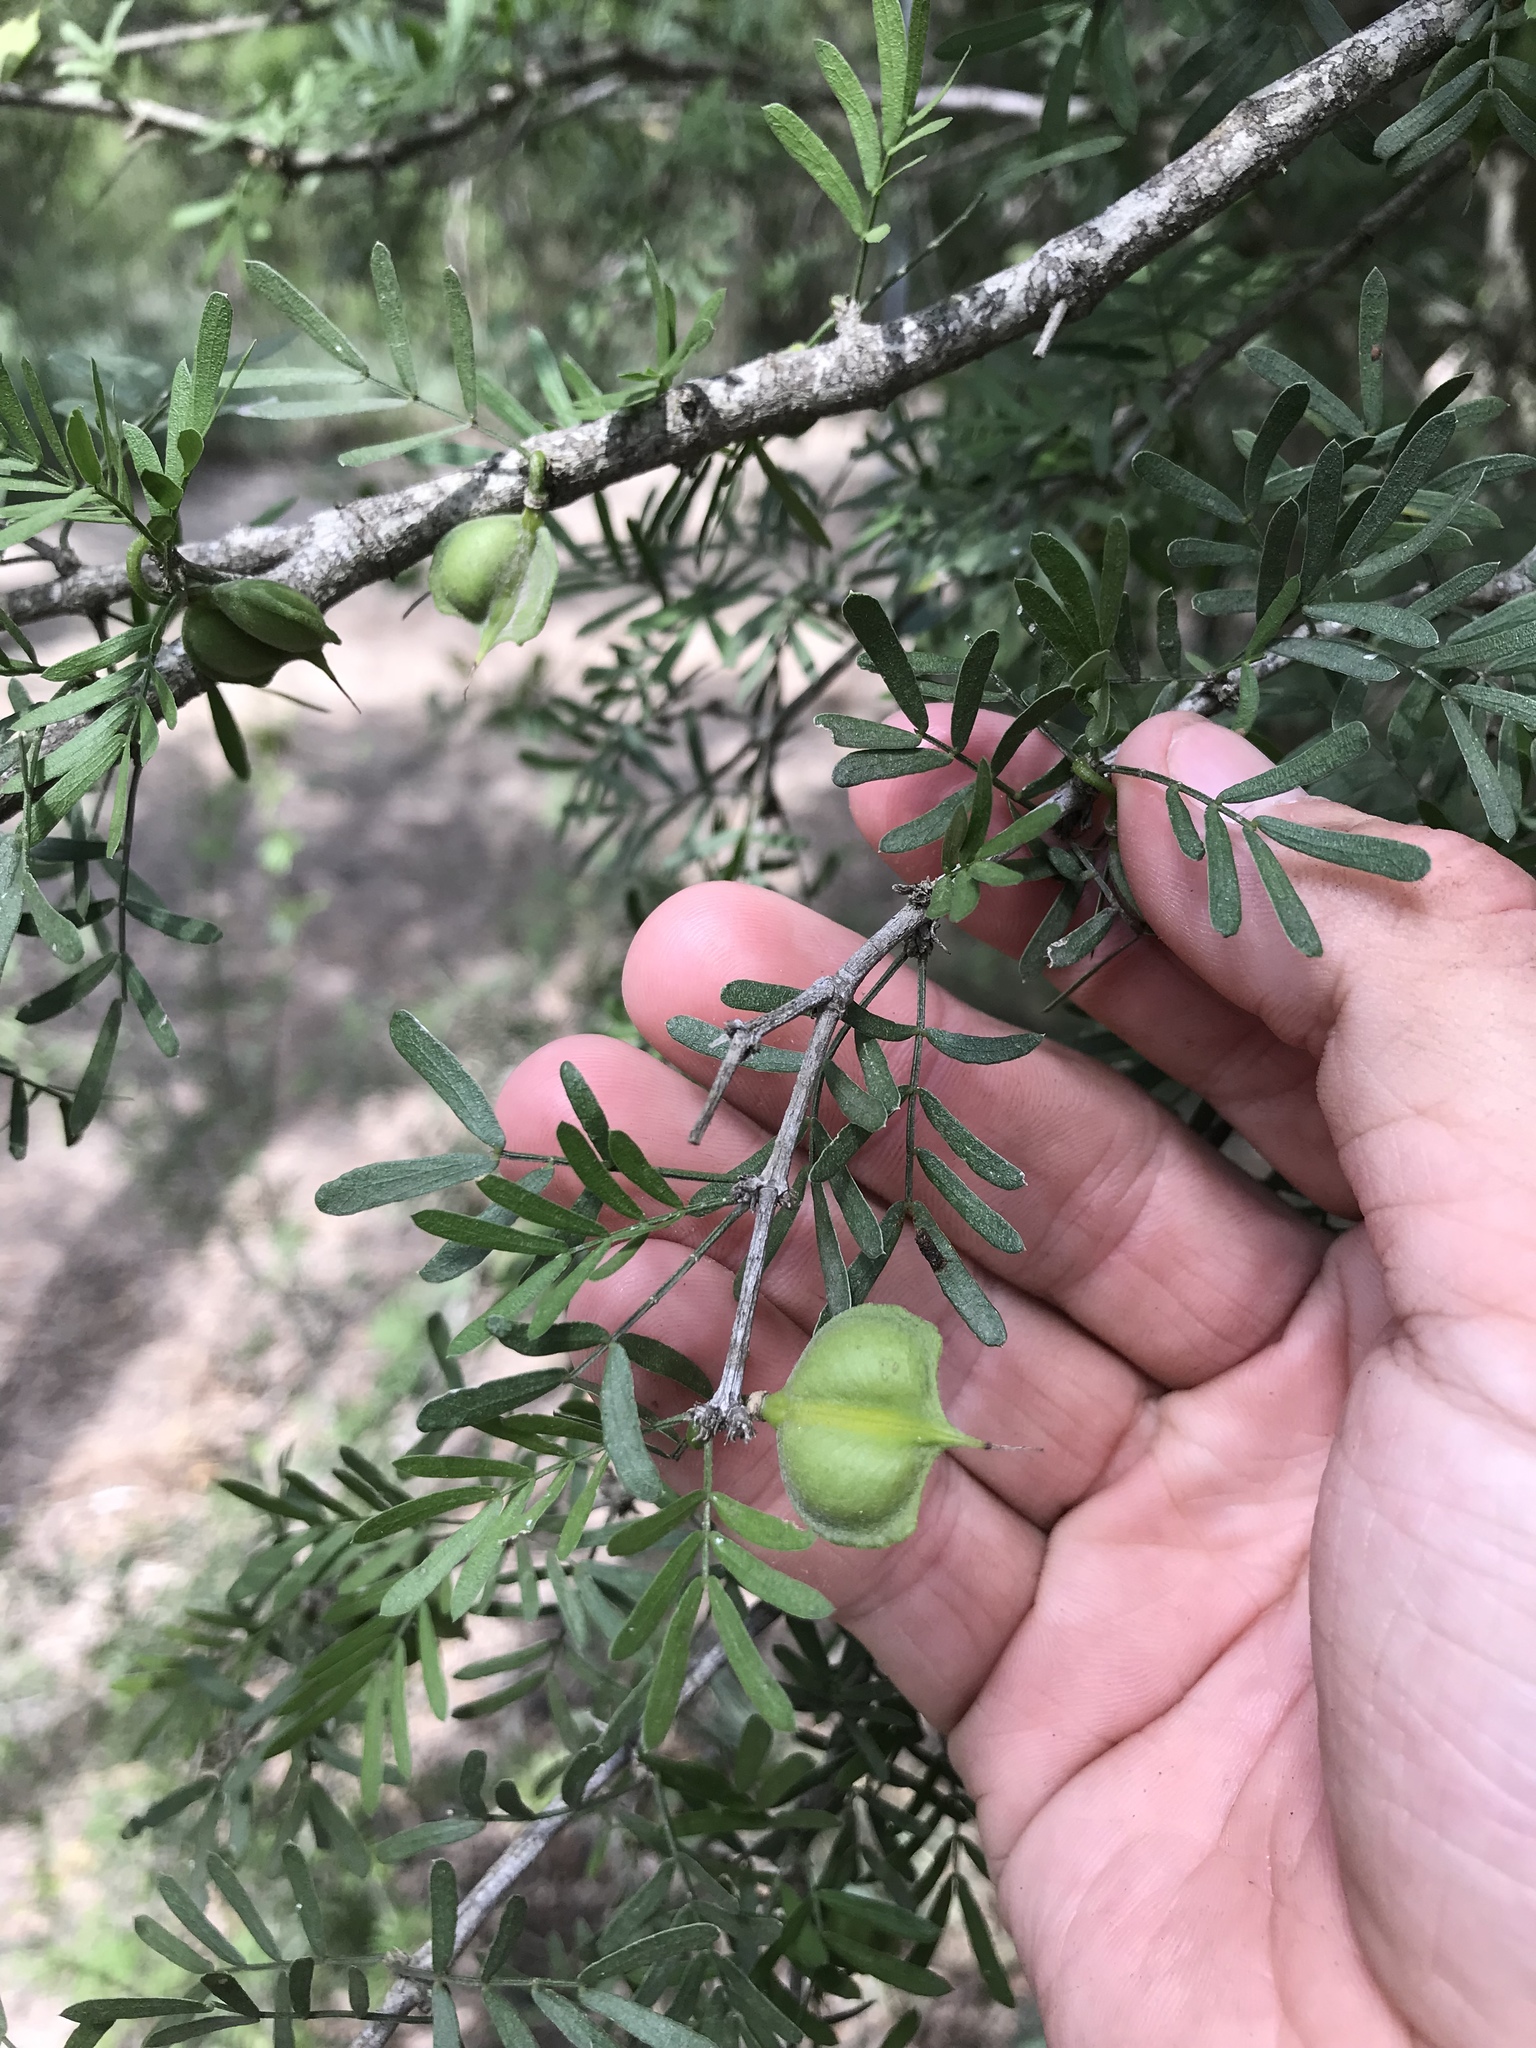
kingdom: Plantae
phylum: Tracheophyta
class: Magnoliopsida
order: Zygophyllales
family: Zygophyllaceae
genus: Porlieria
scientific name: Porlieria angustifolia
